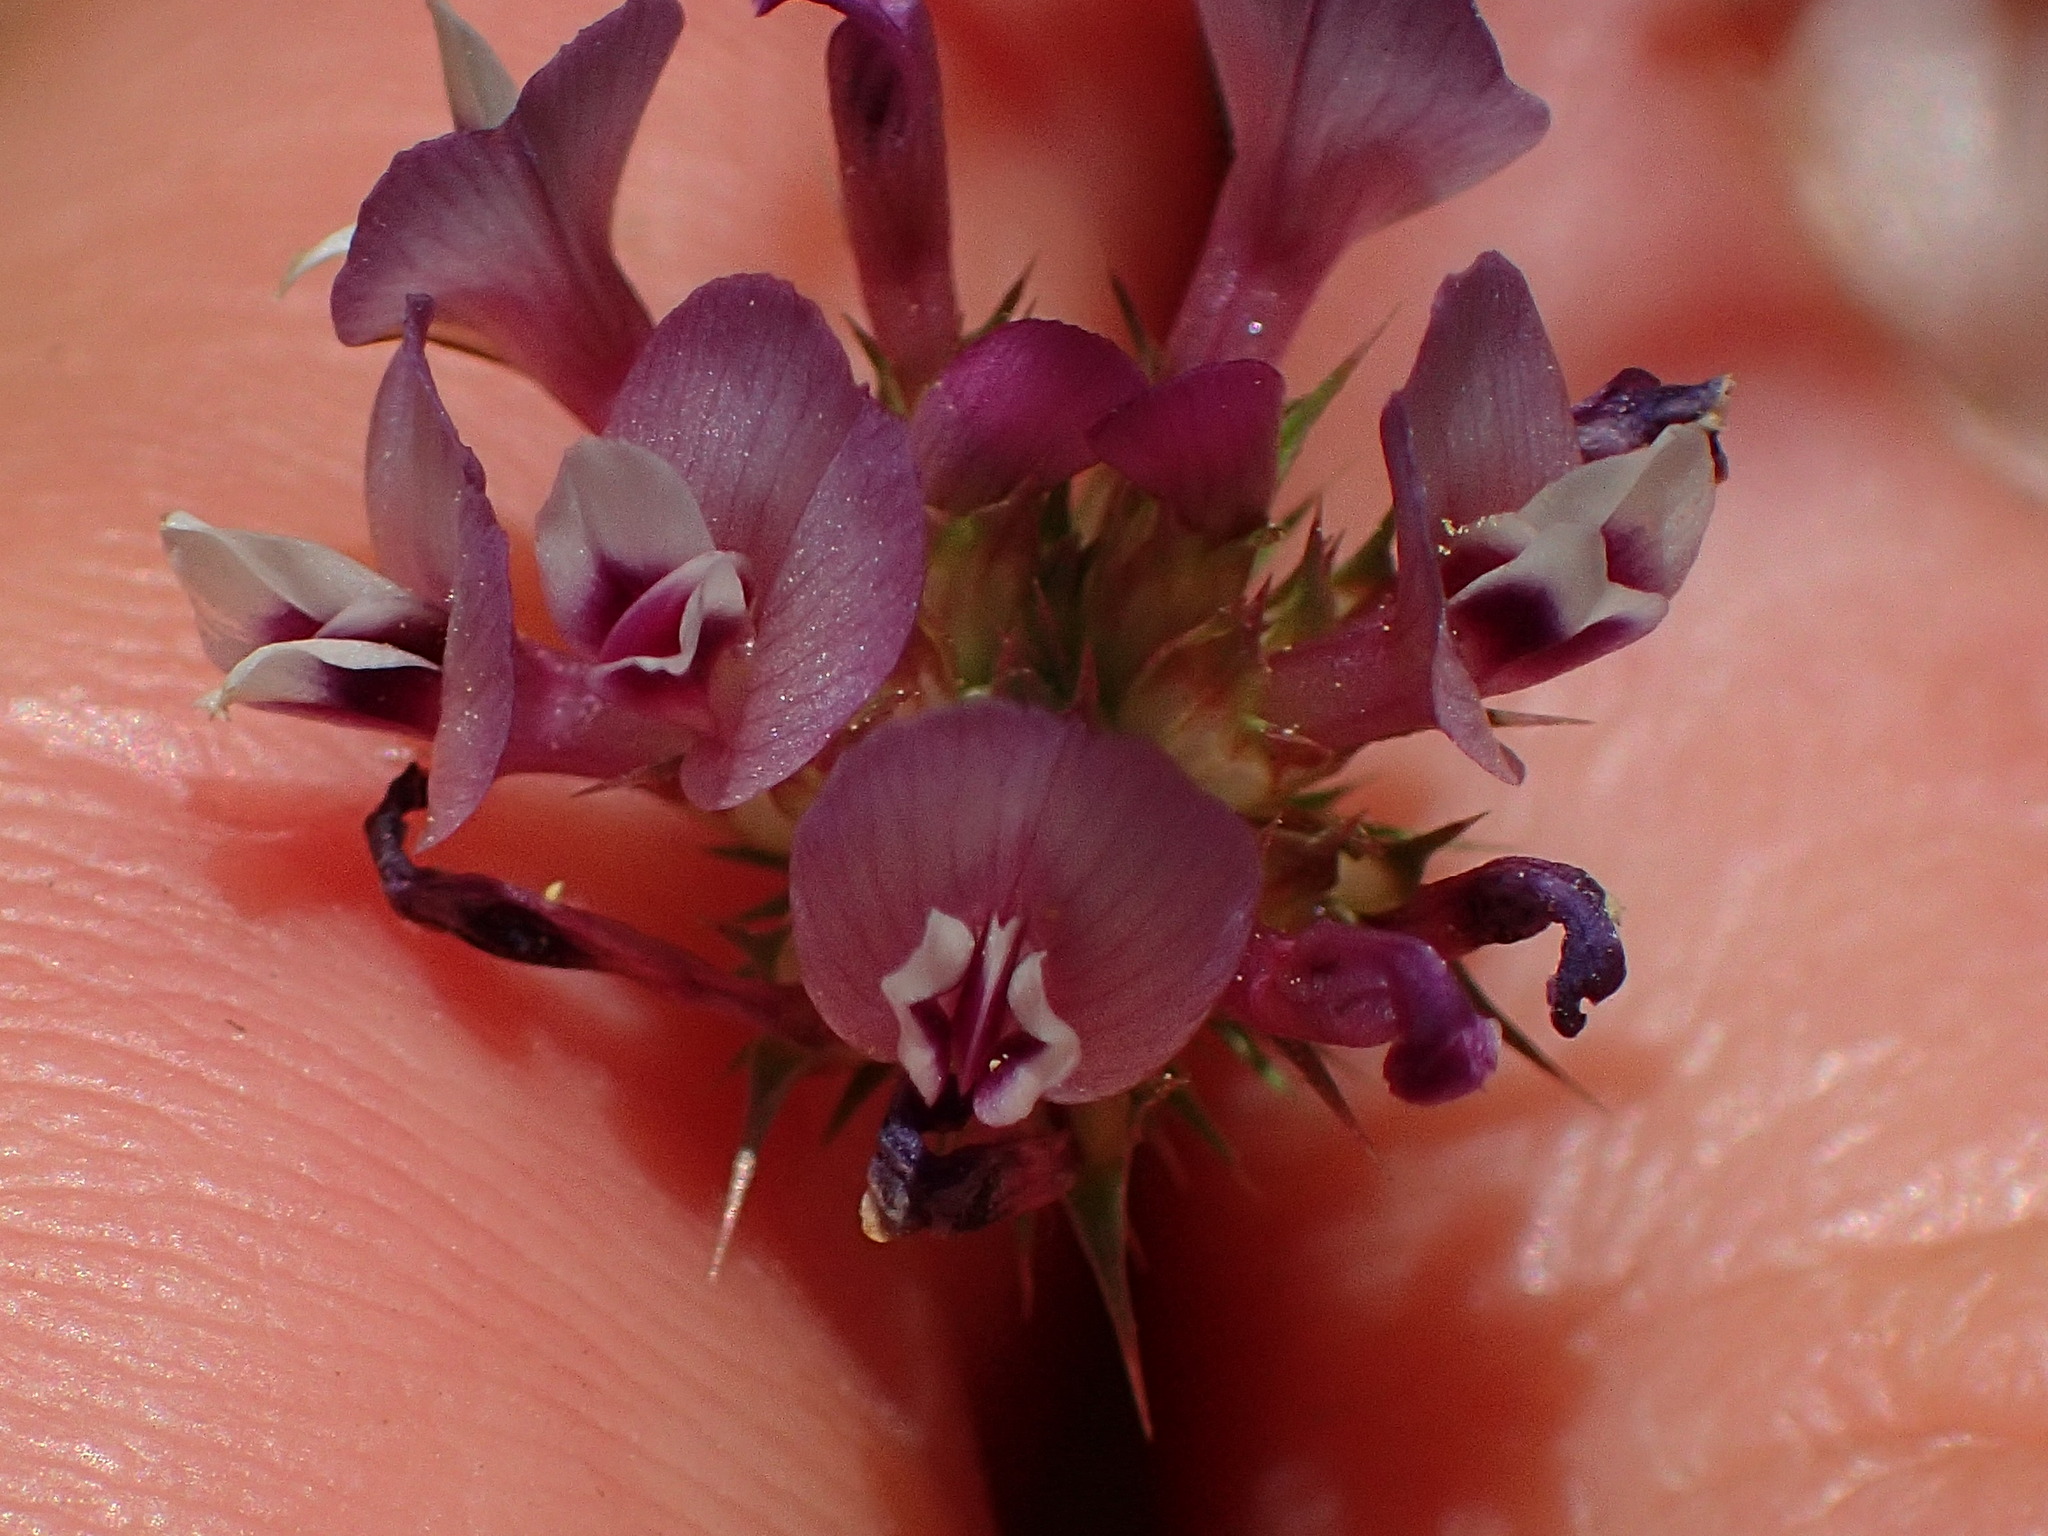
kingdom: Plantae
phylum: Tracheophyta
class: Magnoliopsida
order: Fabales
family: Fabaceae
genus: Trifolium
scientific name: Trifolium willdenovii
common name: Tomcat clover
